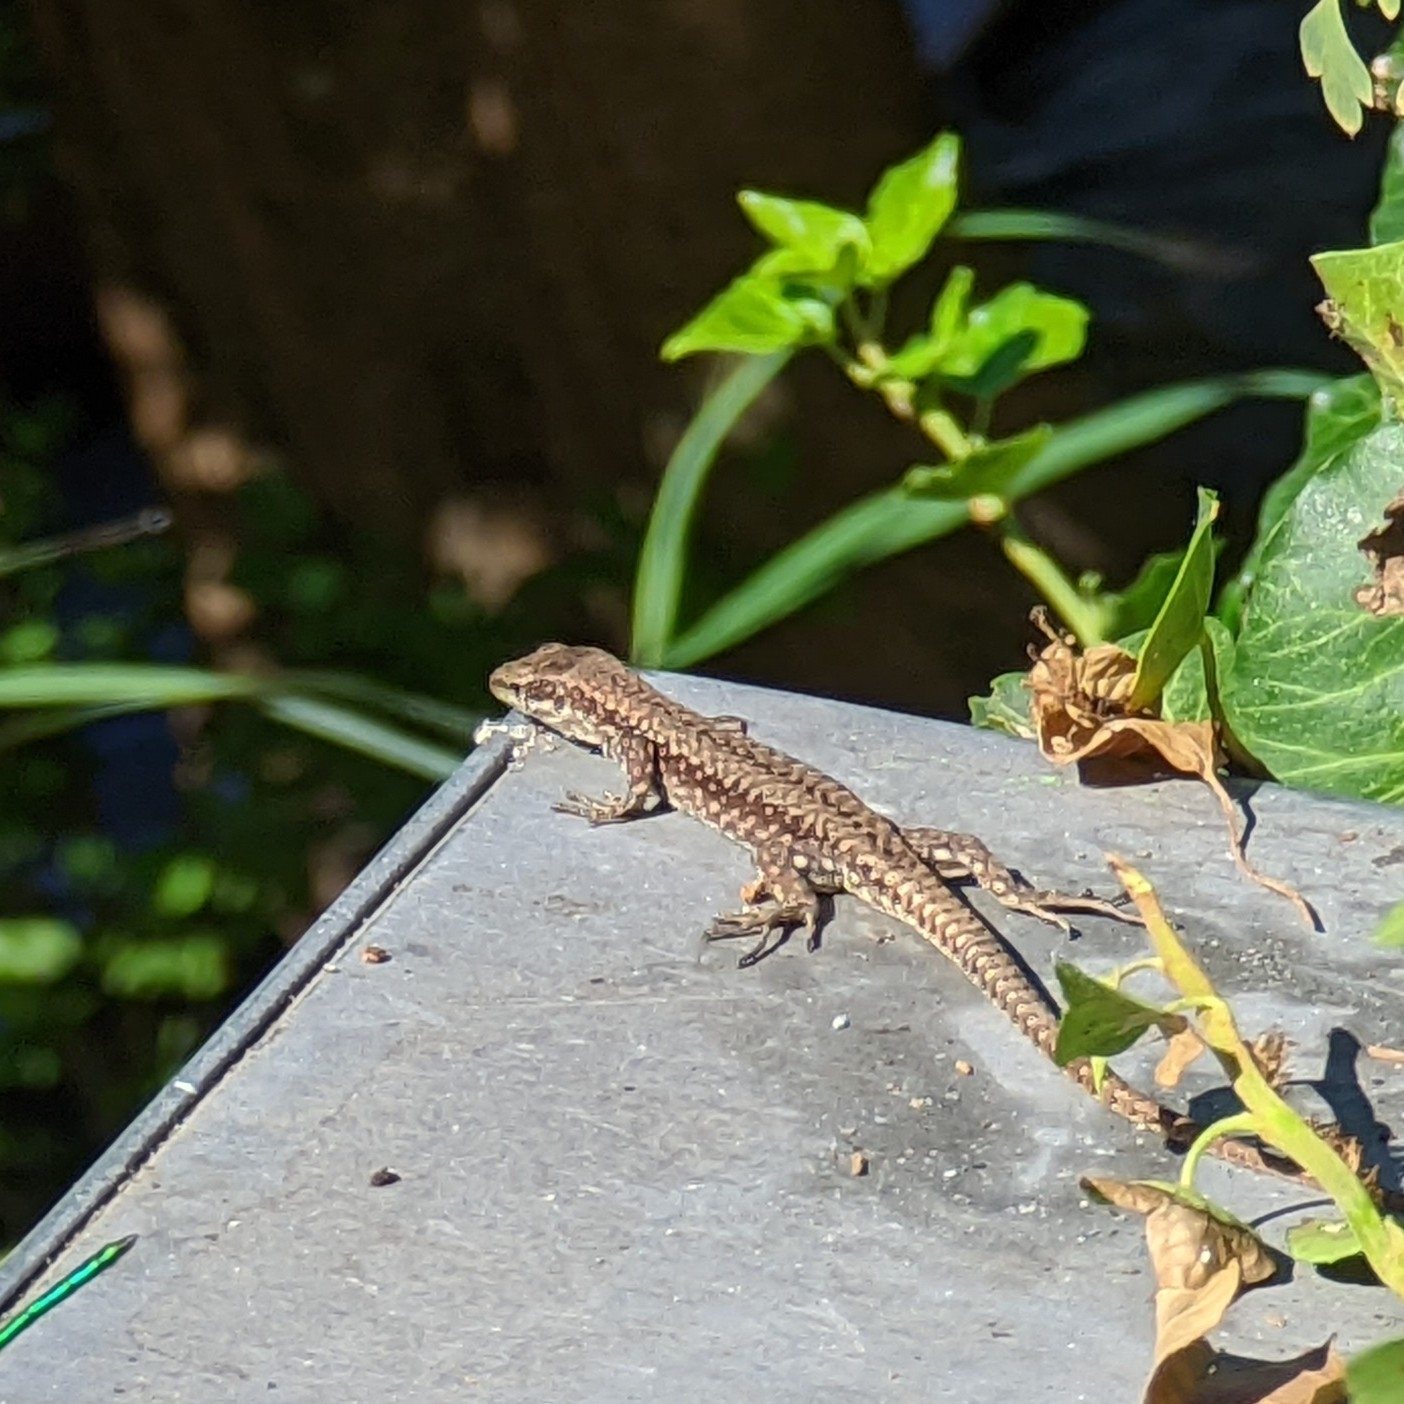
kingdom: Animalia
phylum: Chordata
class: Squamata
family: Lacertidae
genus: Podarcis
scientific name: Podarcis muralis
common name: Common wall lizard
